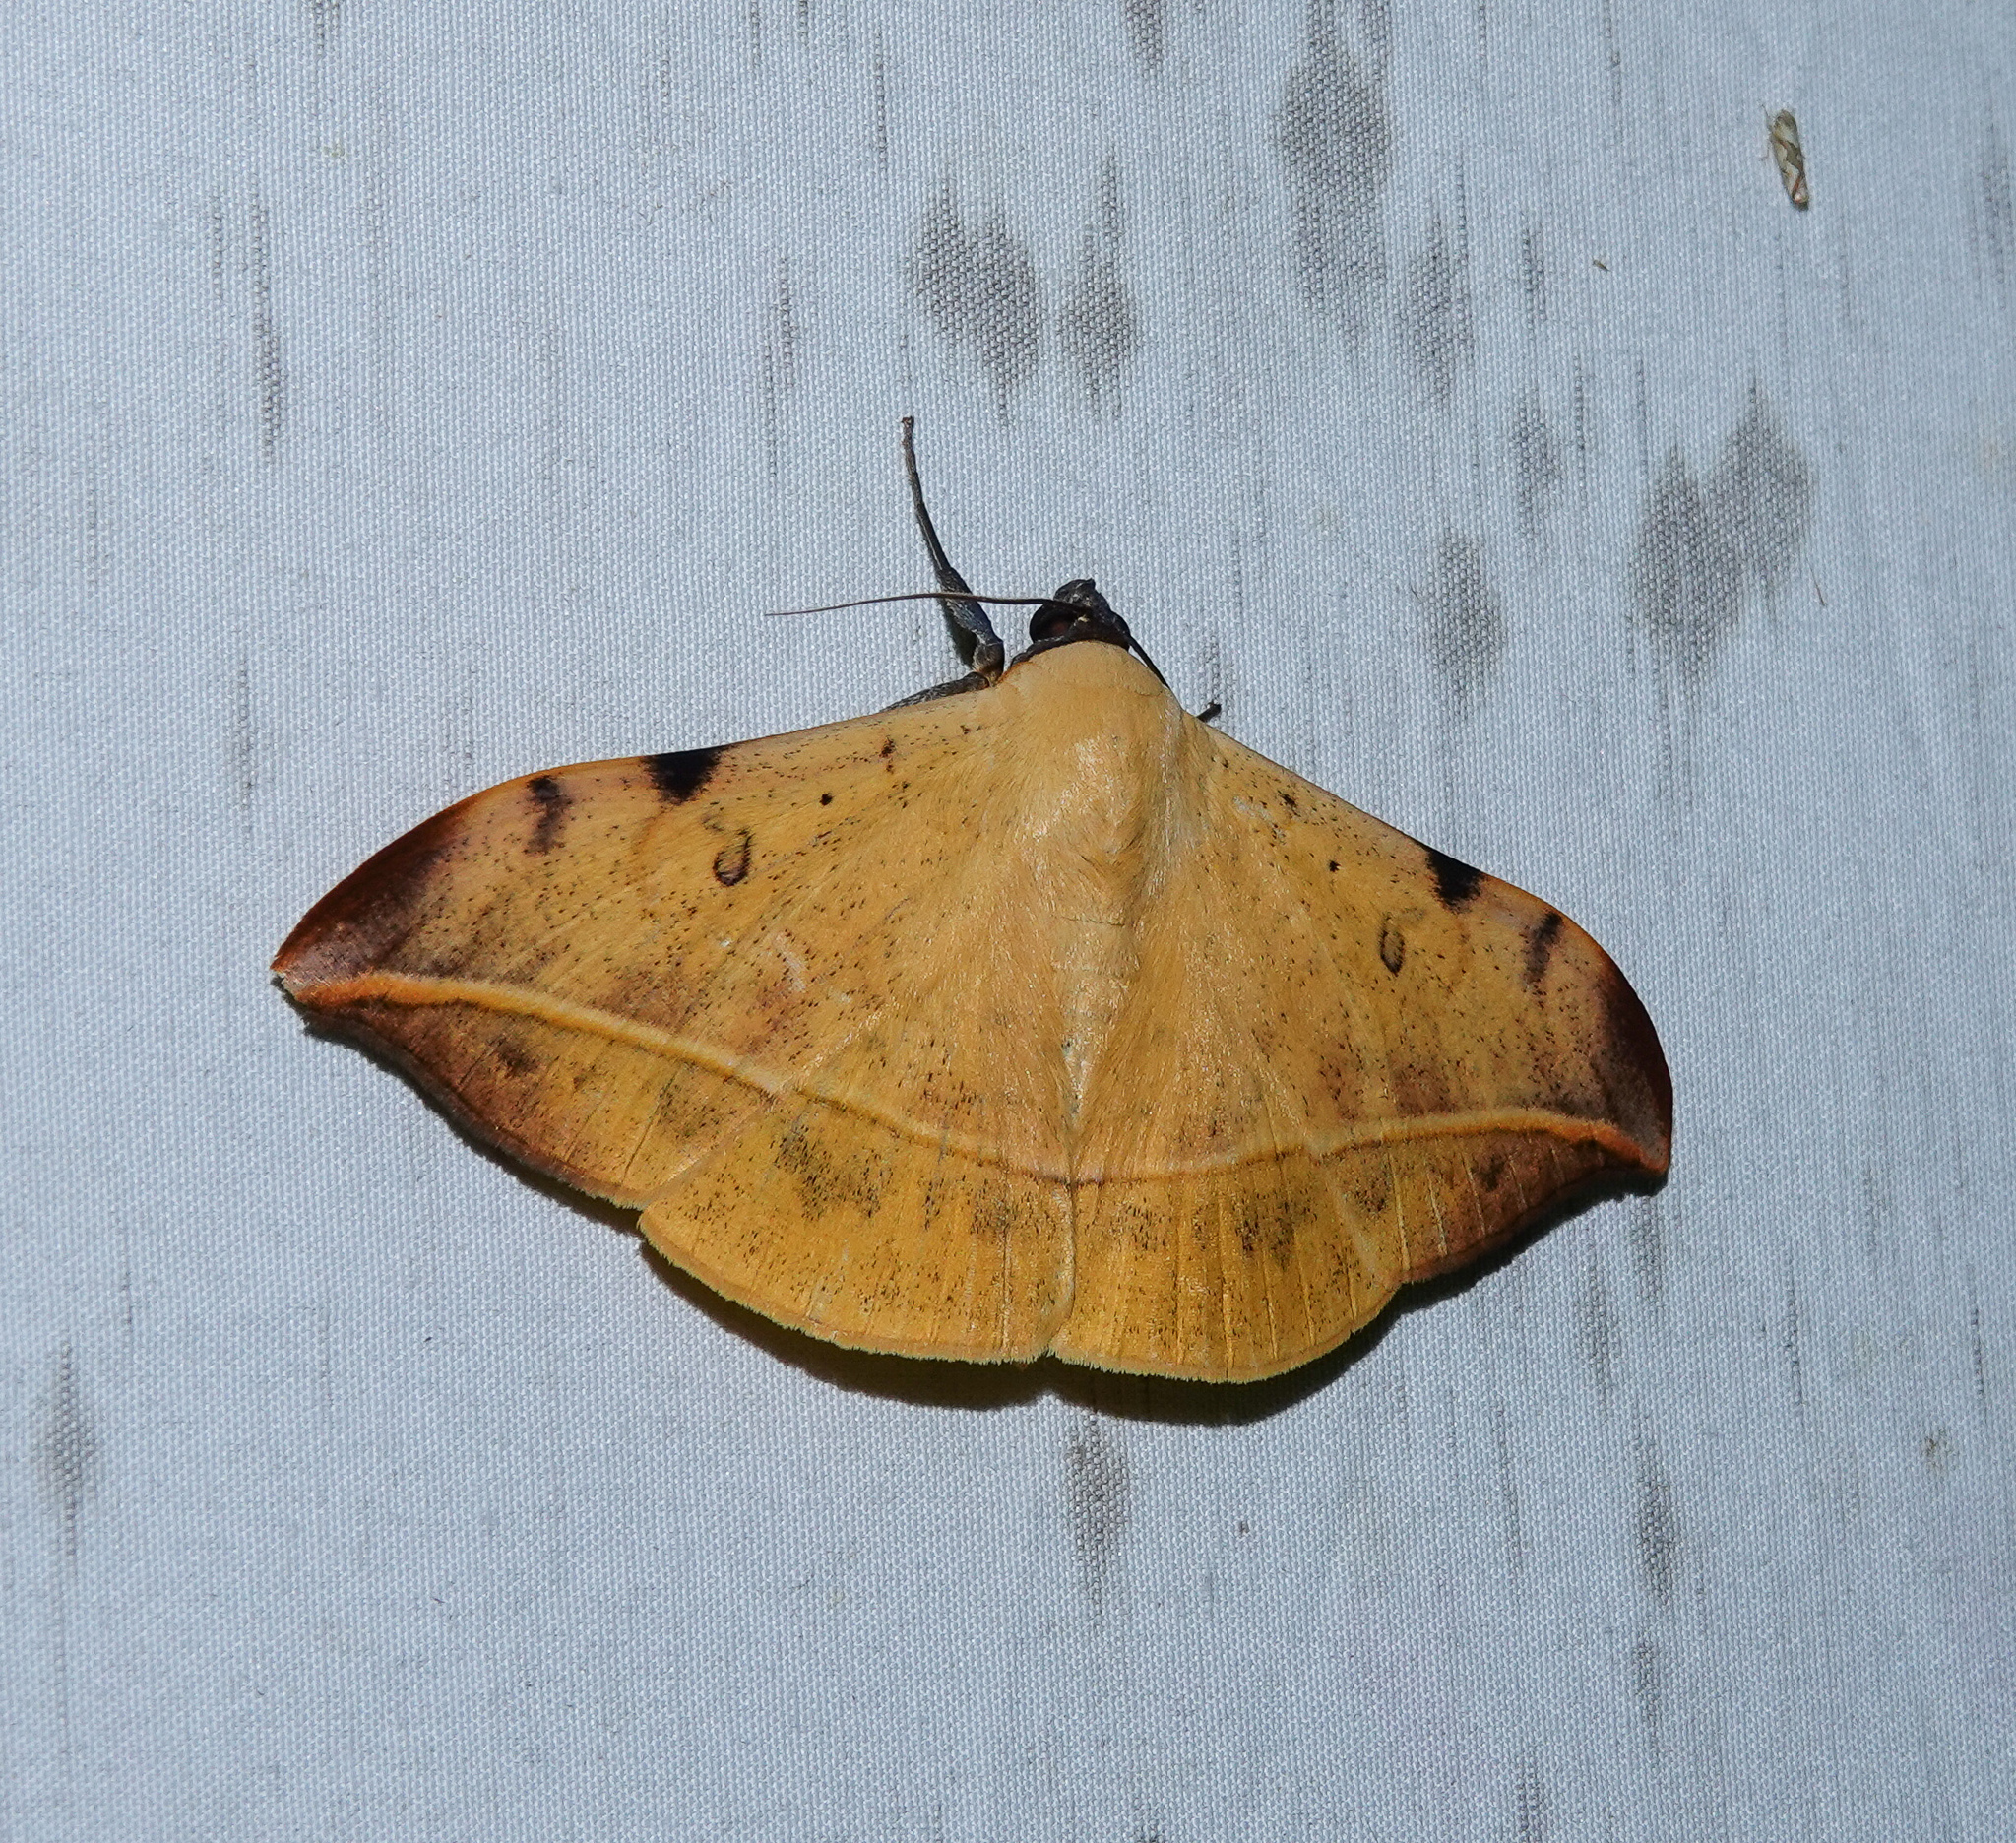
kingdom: Animalia
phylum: Arthropoda
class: Insecta
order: Lepidoptera
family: Erebidae
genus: Hamodes
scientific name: Hamodes propitia
